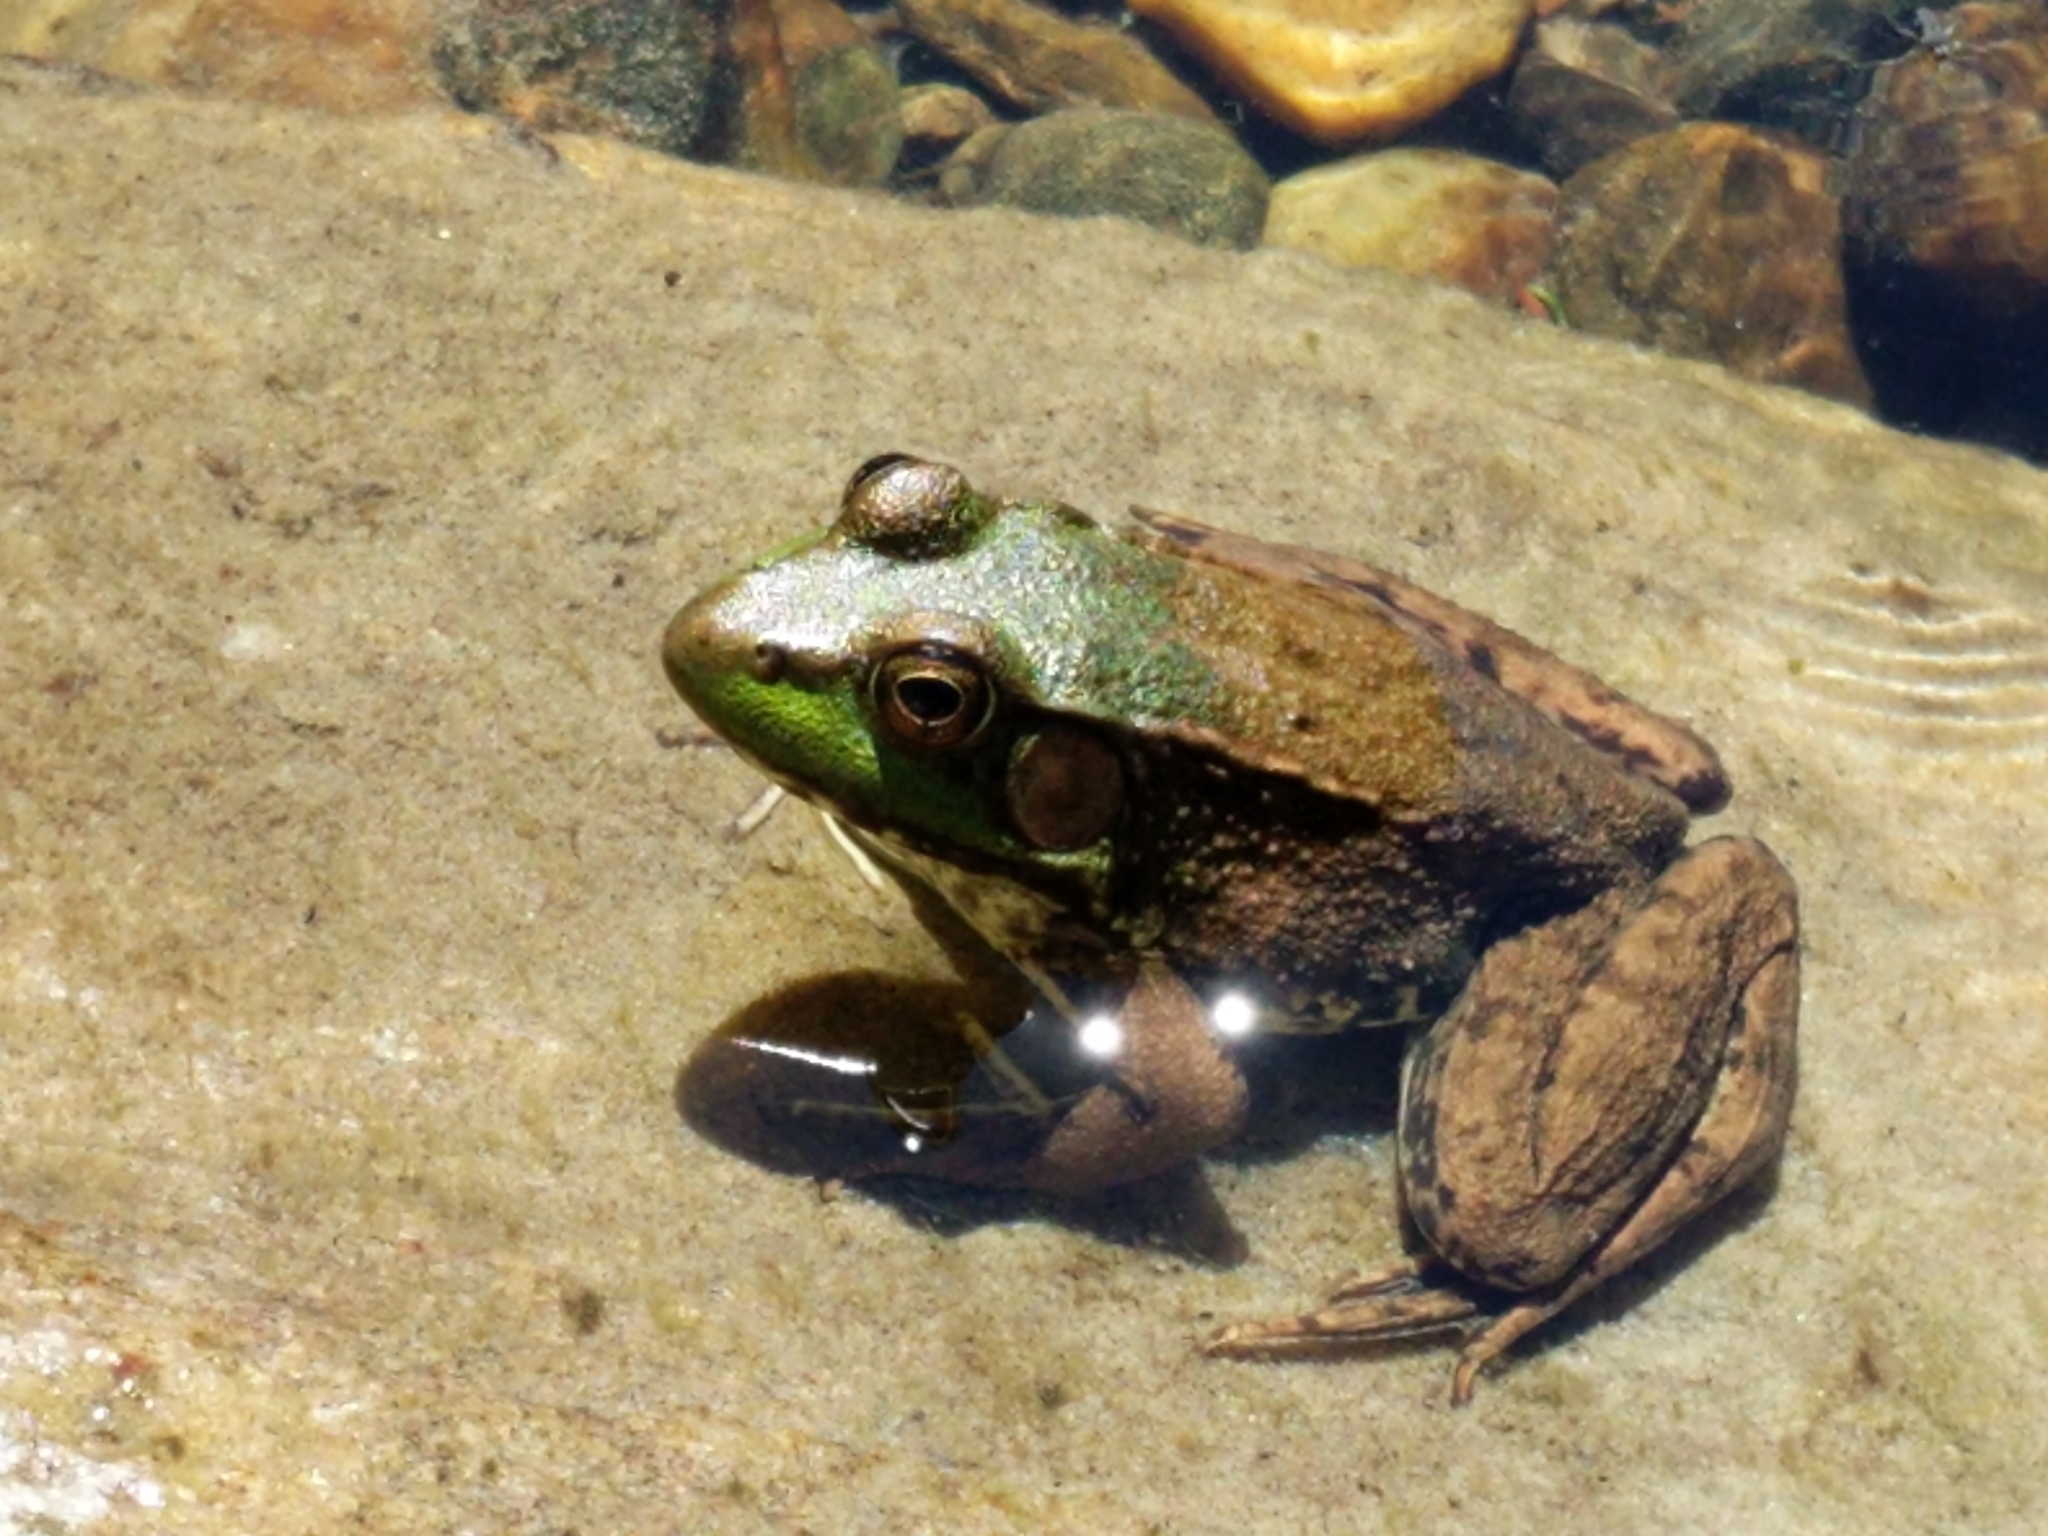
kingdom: Animalia
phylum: Chordata
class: Amphibia
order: Anura
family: Ranidae
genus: Lithobates
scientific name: Lithobates clamitans
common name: Green frog
